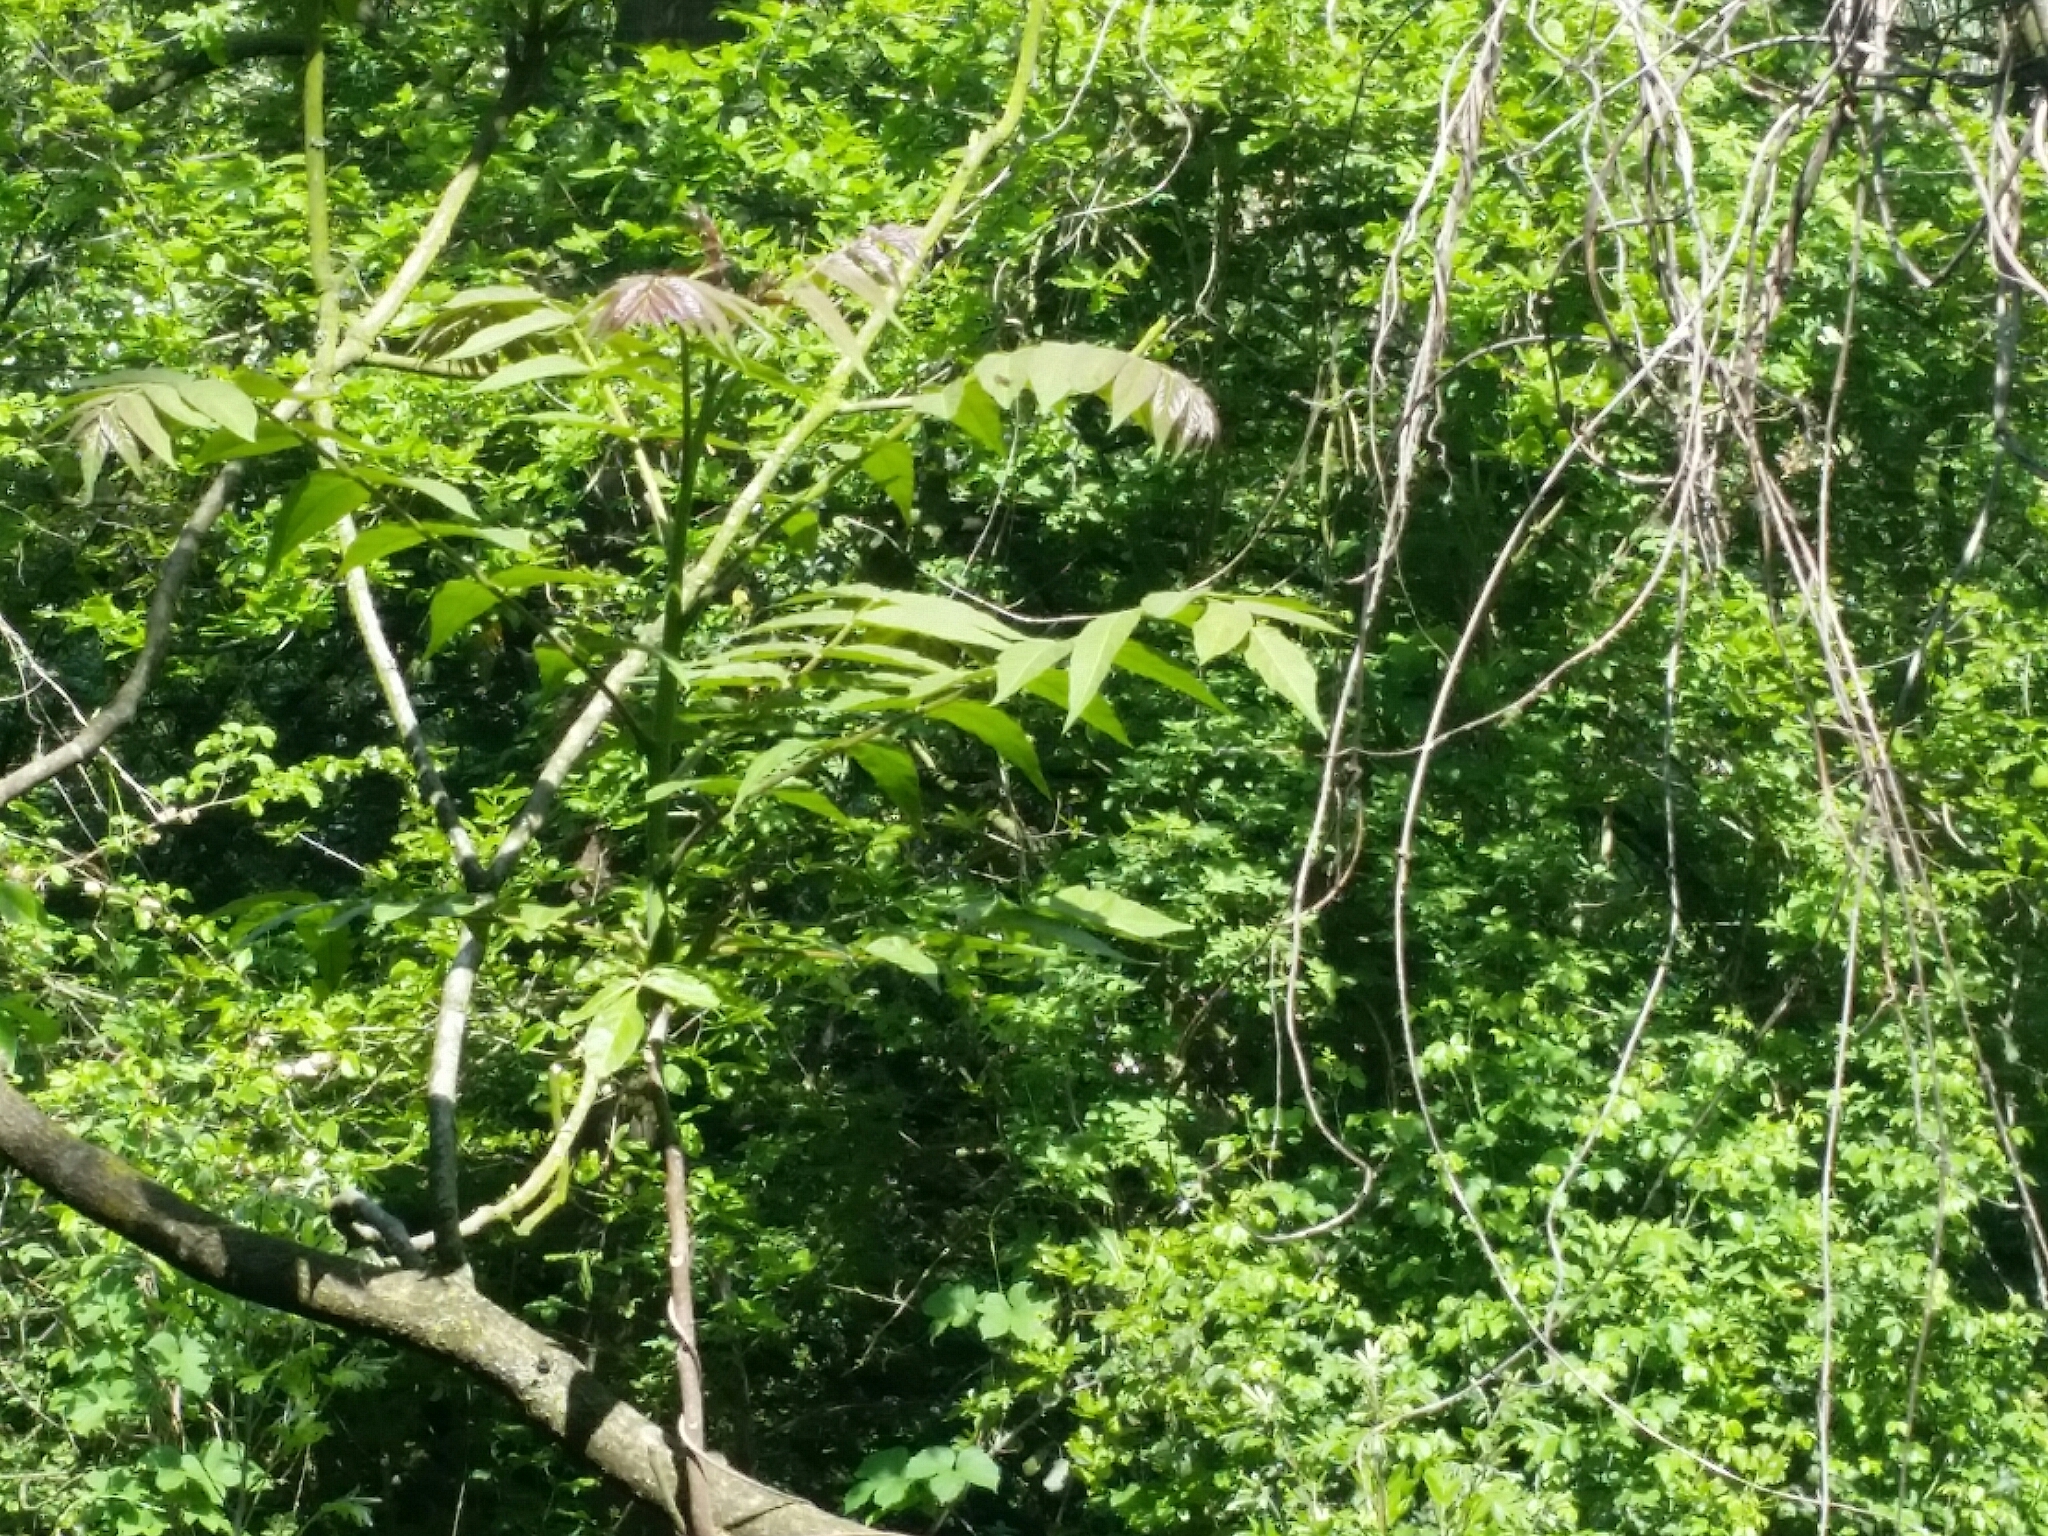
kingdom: Plantae
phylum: Tracheophyta
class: Magnoliopsida
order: Sapindales
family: Simaroubaceae
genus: Ailanthus
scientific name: Ailanthus altissima
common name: Tree-of-heaven
